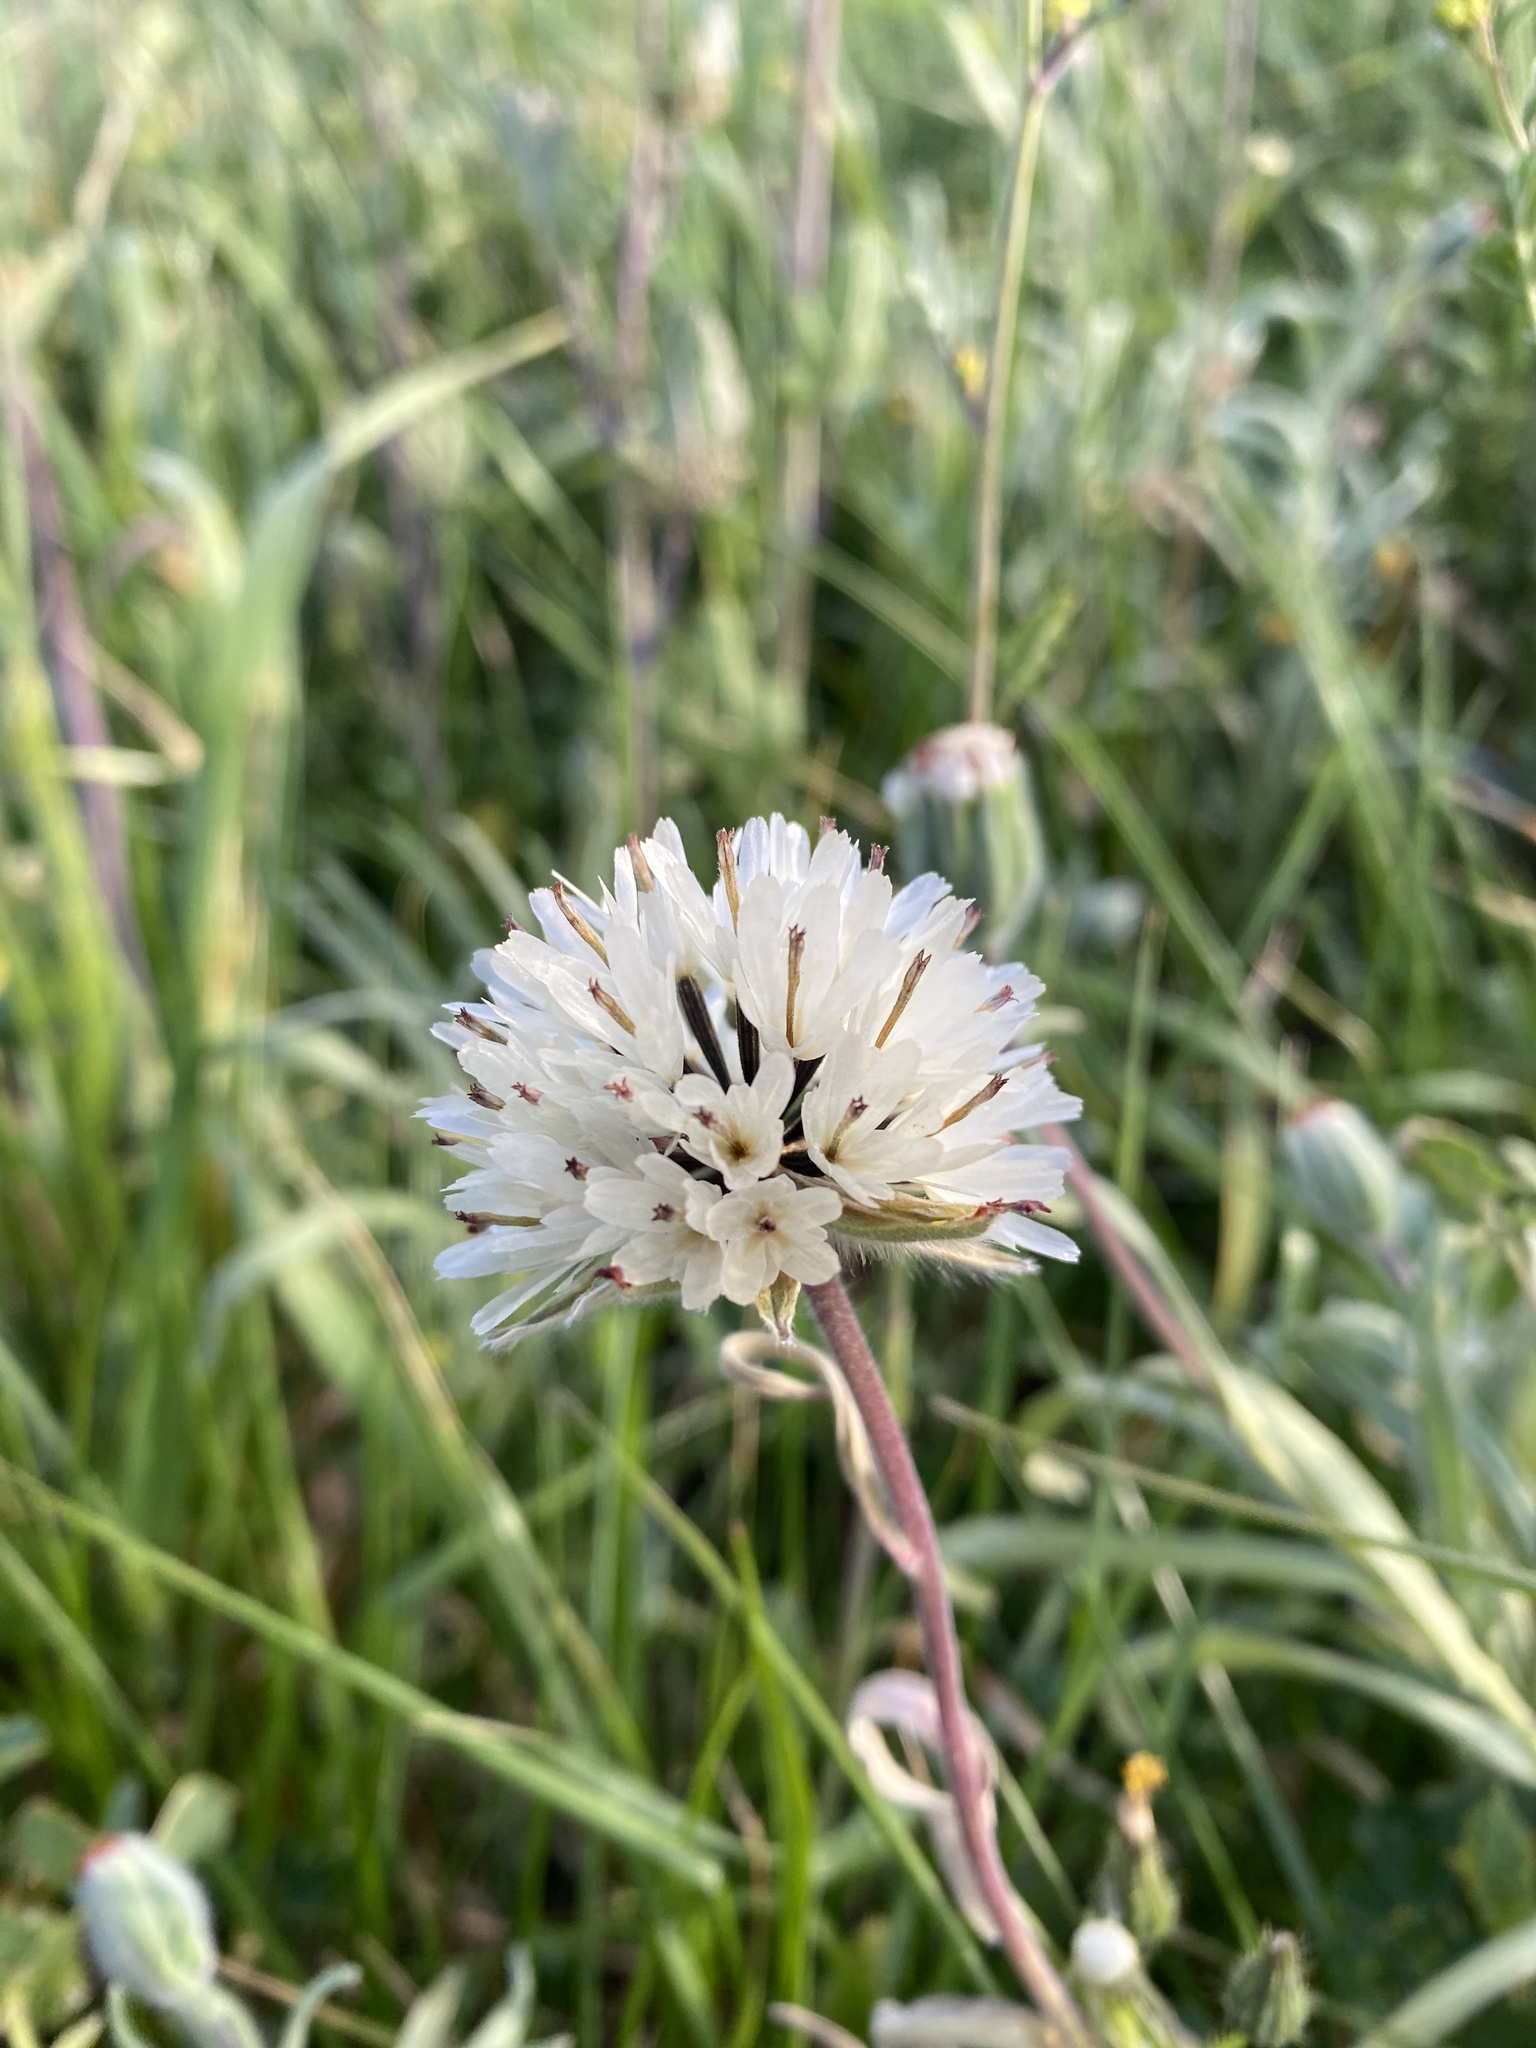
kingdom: Plantae
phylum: Tracheophyta
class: Magnoliopsida
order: Asterales
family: Asteraceae
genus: Achyrachaena
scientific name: Achyrachaena mollis
